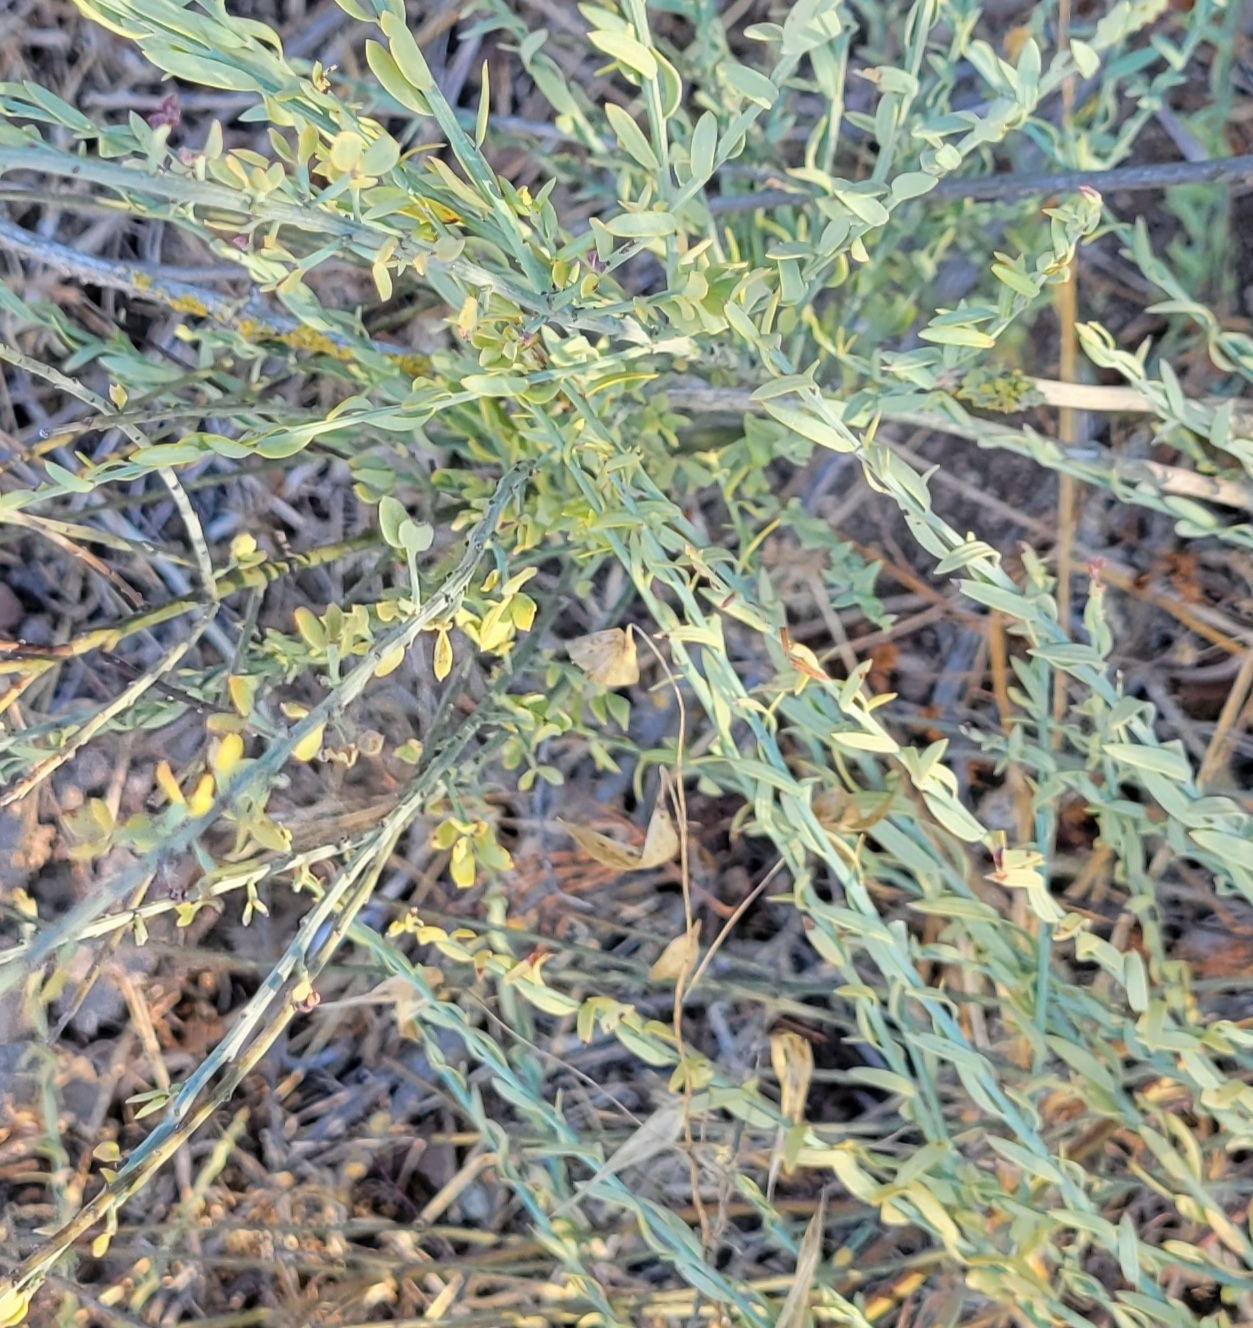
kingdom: Plantae
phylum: Tracheophyta
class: Magnoliopsida
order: Santalales
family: Santalaceae
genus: Osyris
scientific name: Osyris alba
